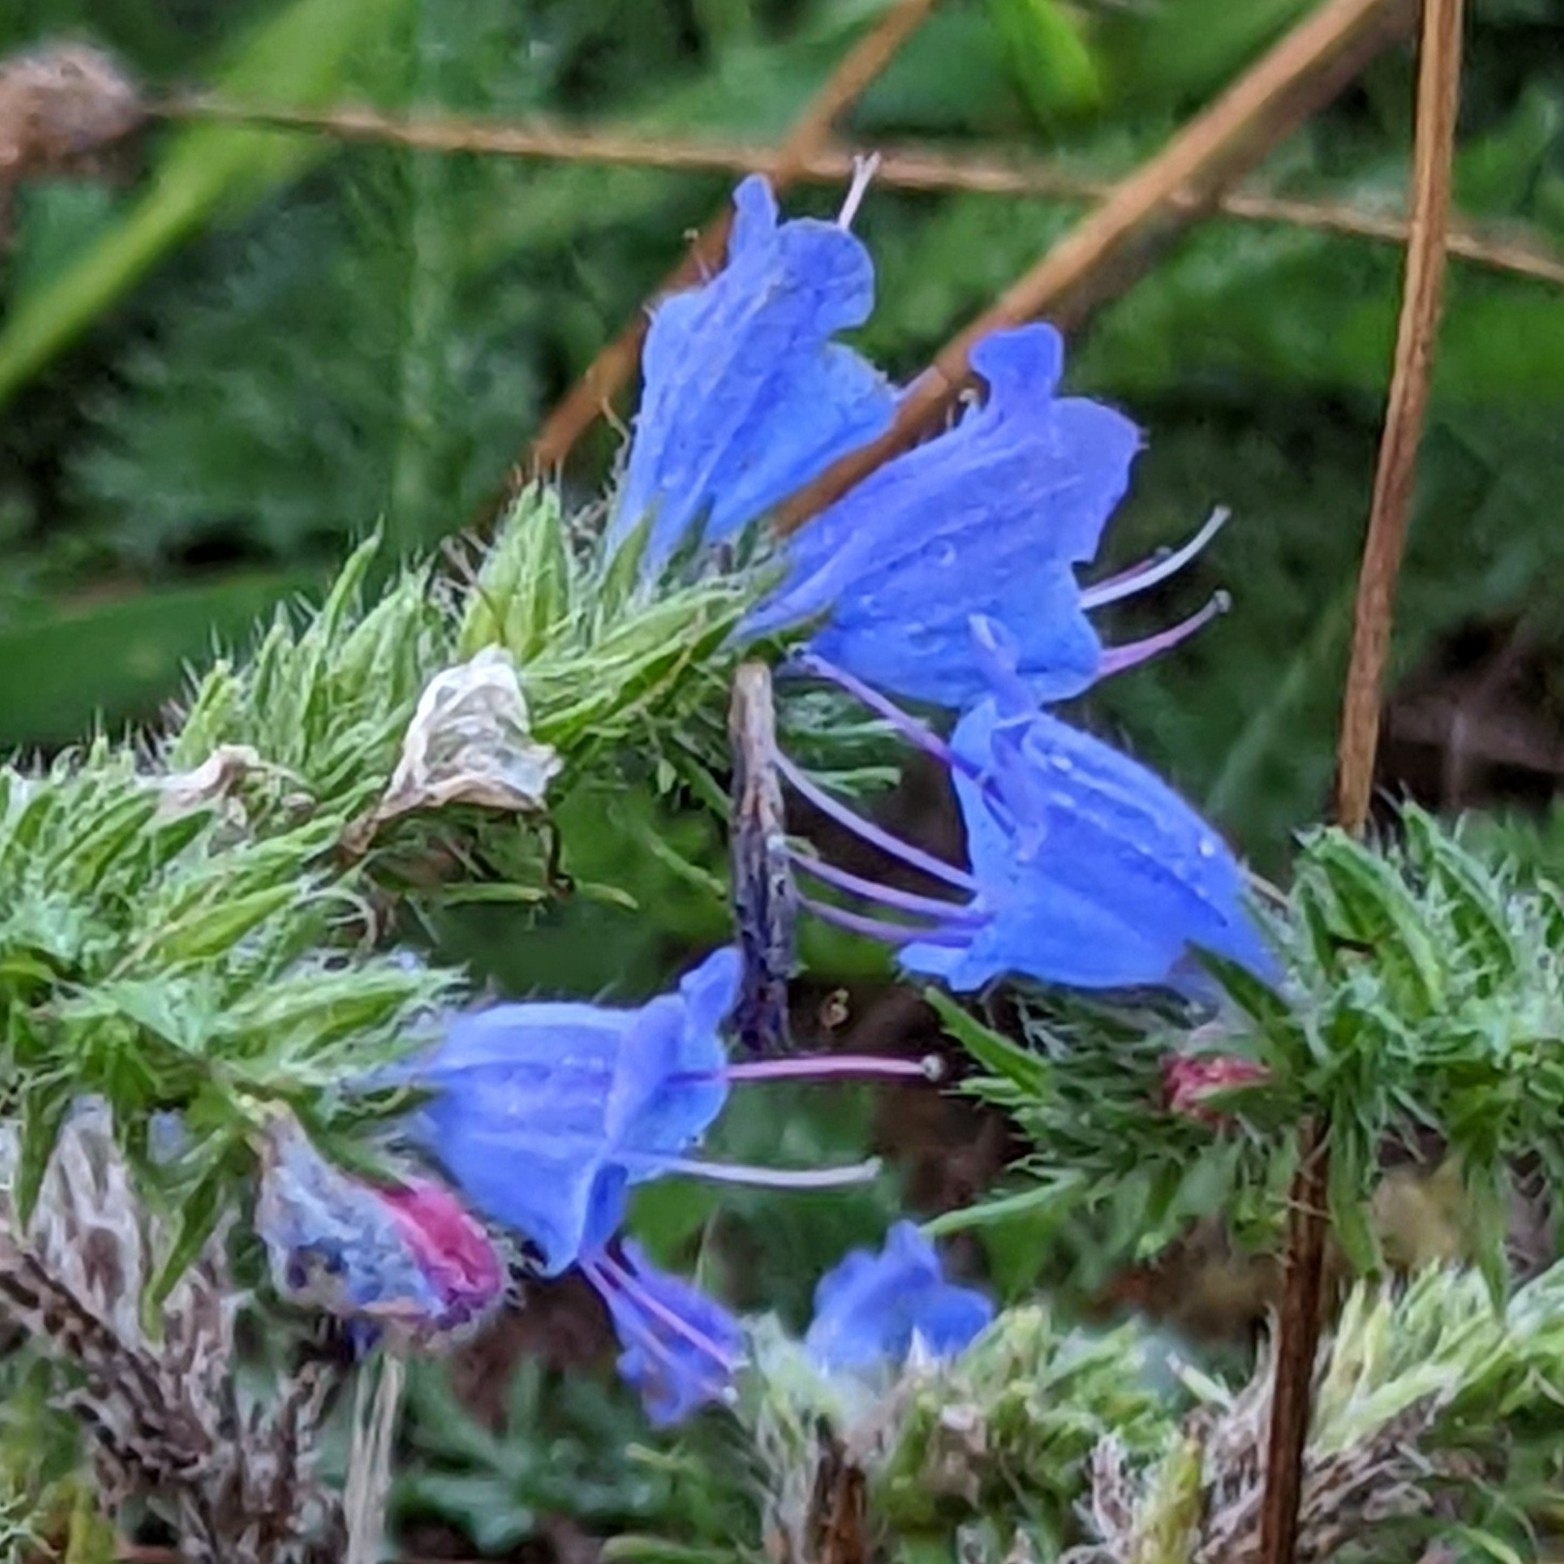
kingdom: Plantae
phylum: Tracheophyta
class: Magnoliopsida
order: Boraginales
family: Boraginaceae
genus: Echium
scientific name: Echium vulgare
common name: Common viper's bugloss
